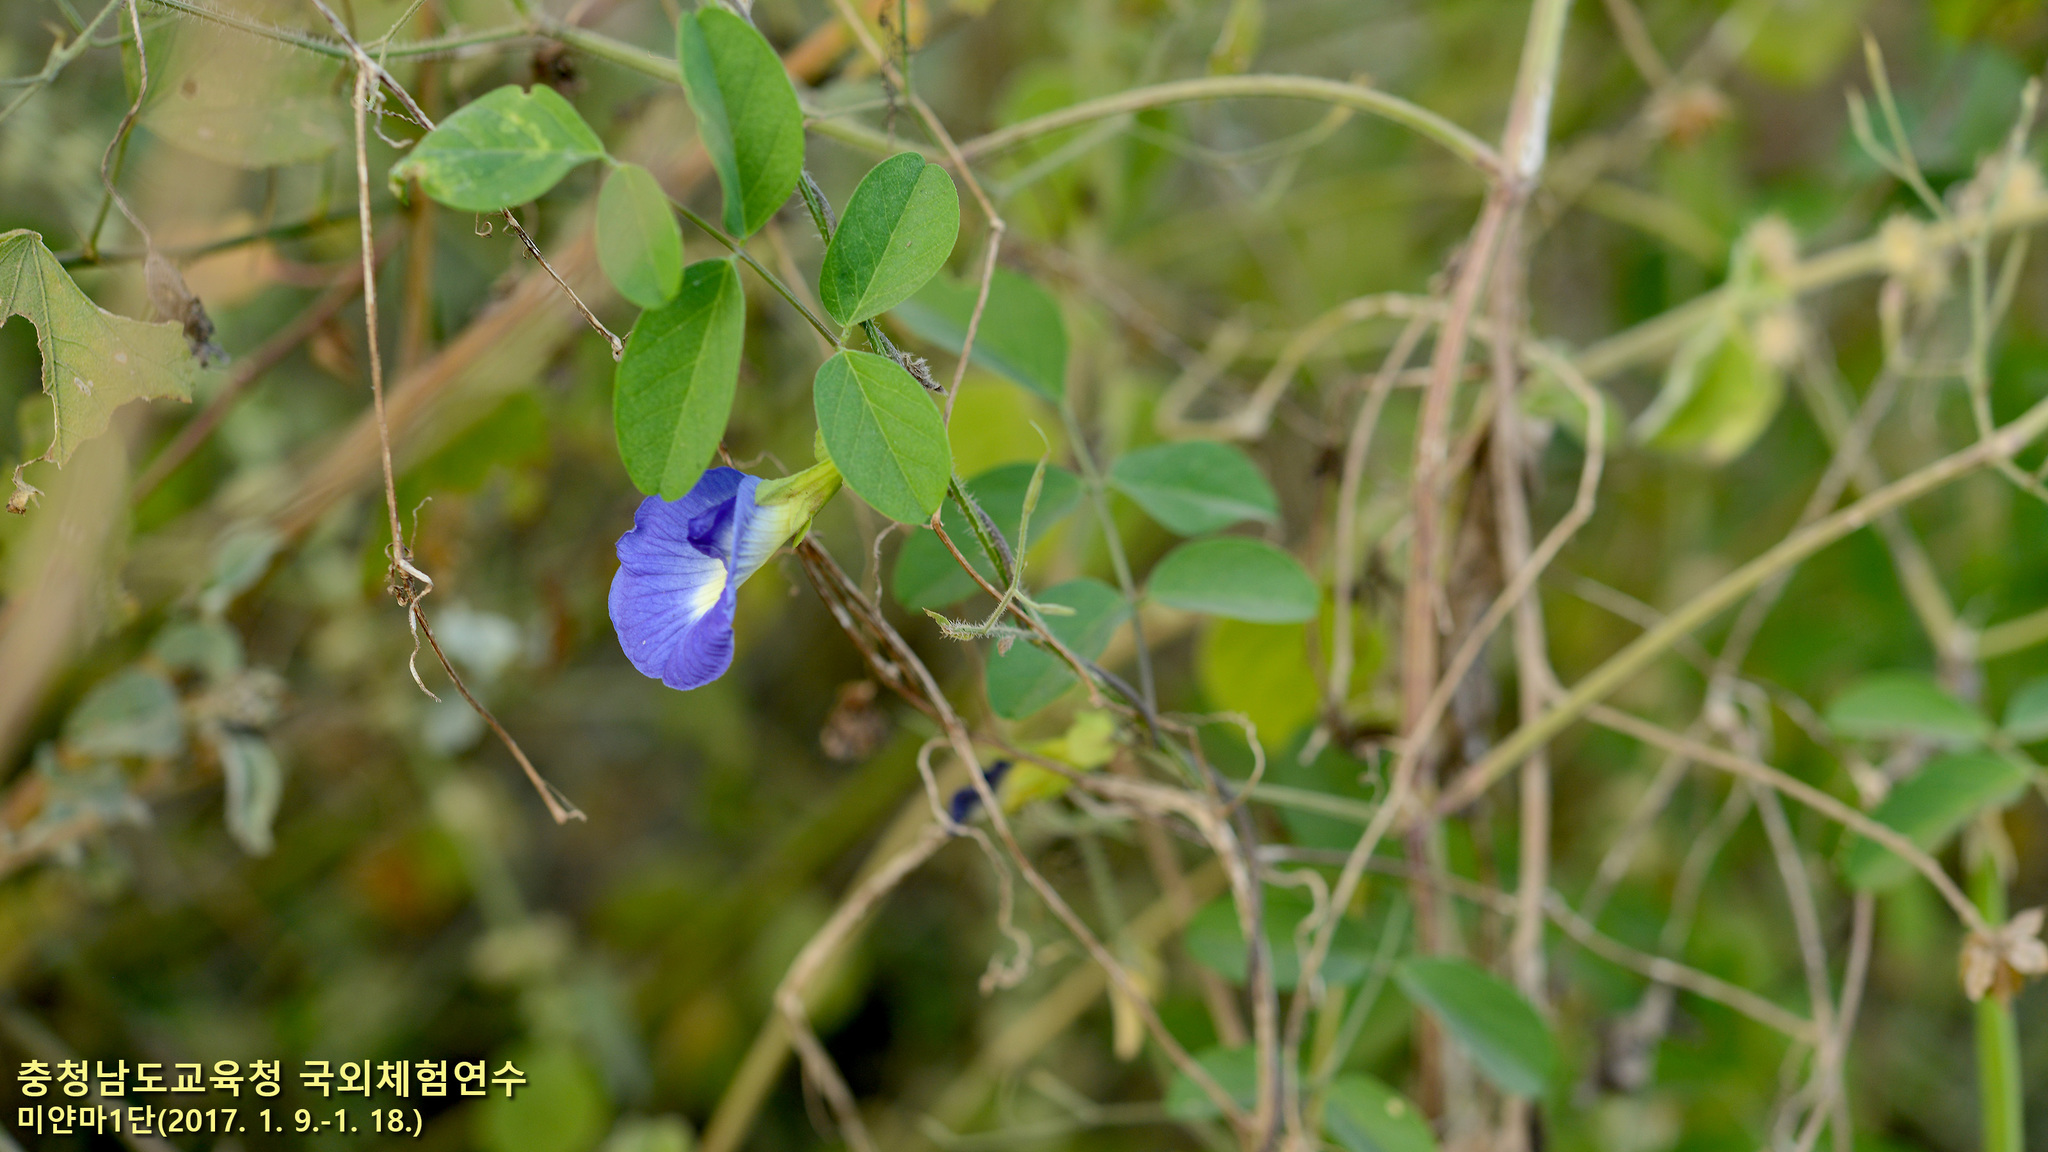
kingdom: Plantae
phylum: Tracheophyta
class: Magnoliopsida
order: Fabales
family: Fabaceae
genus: Clitoria
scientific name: Clitoria ternatea
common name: Asian pigeonwings
